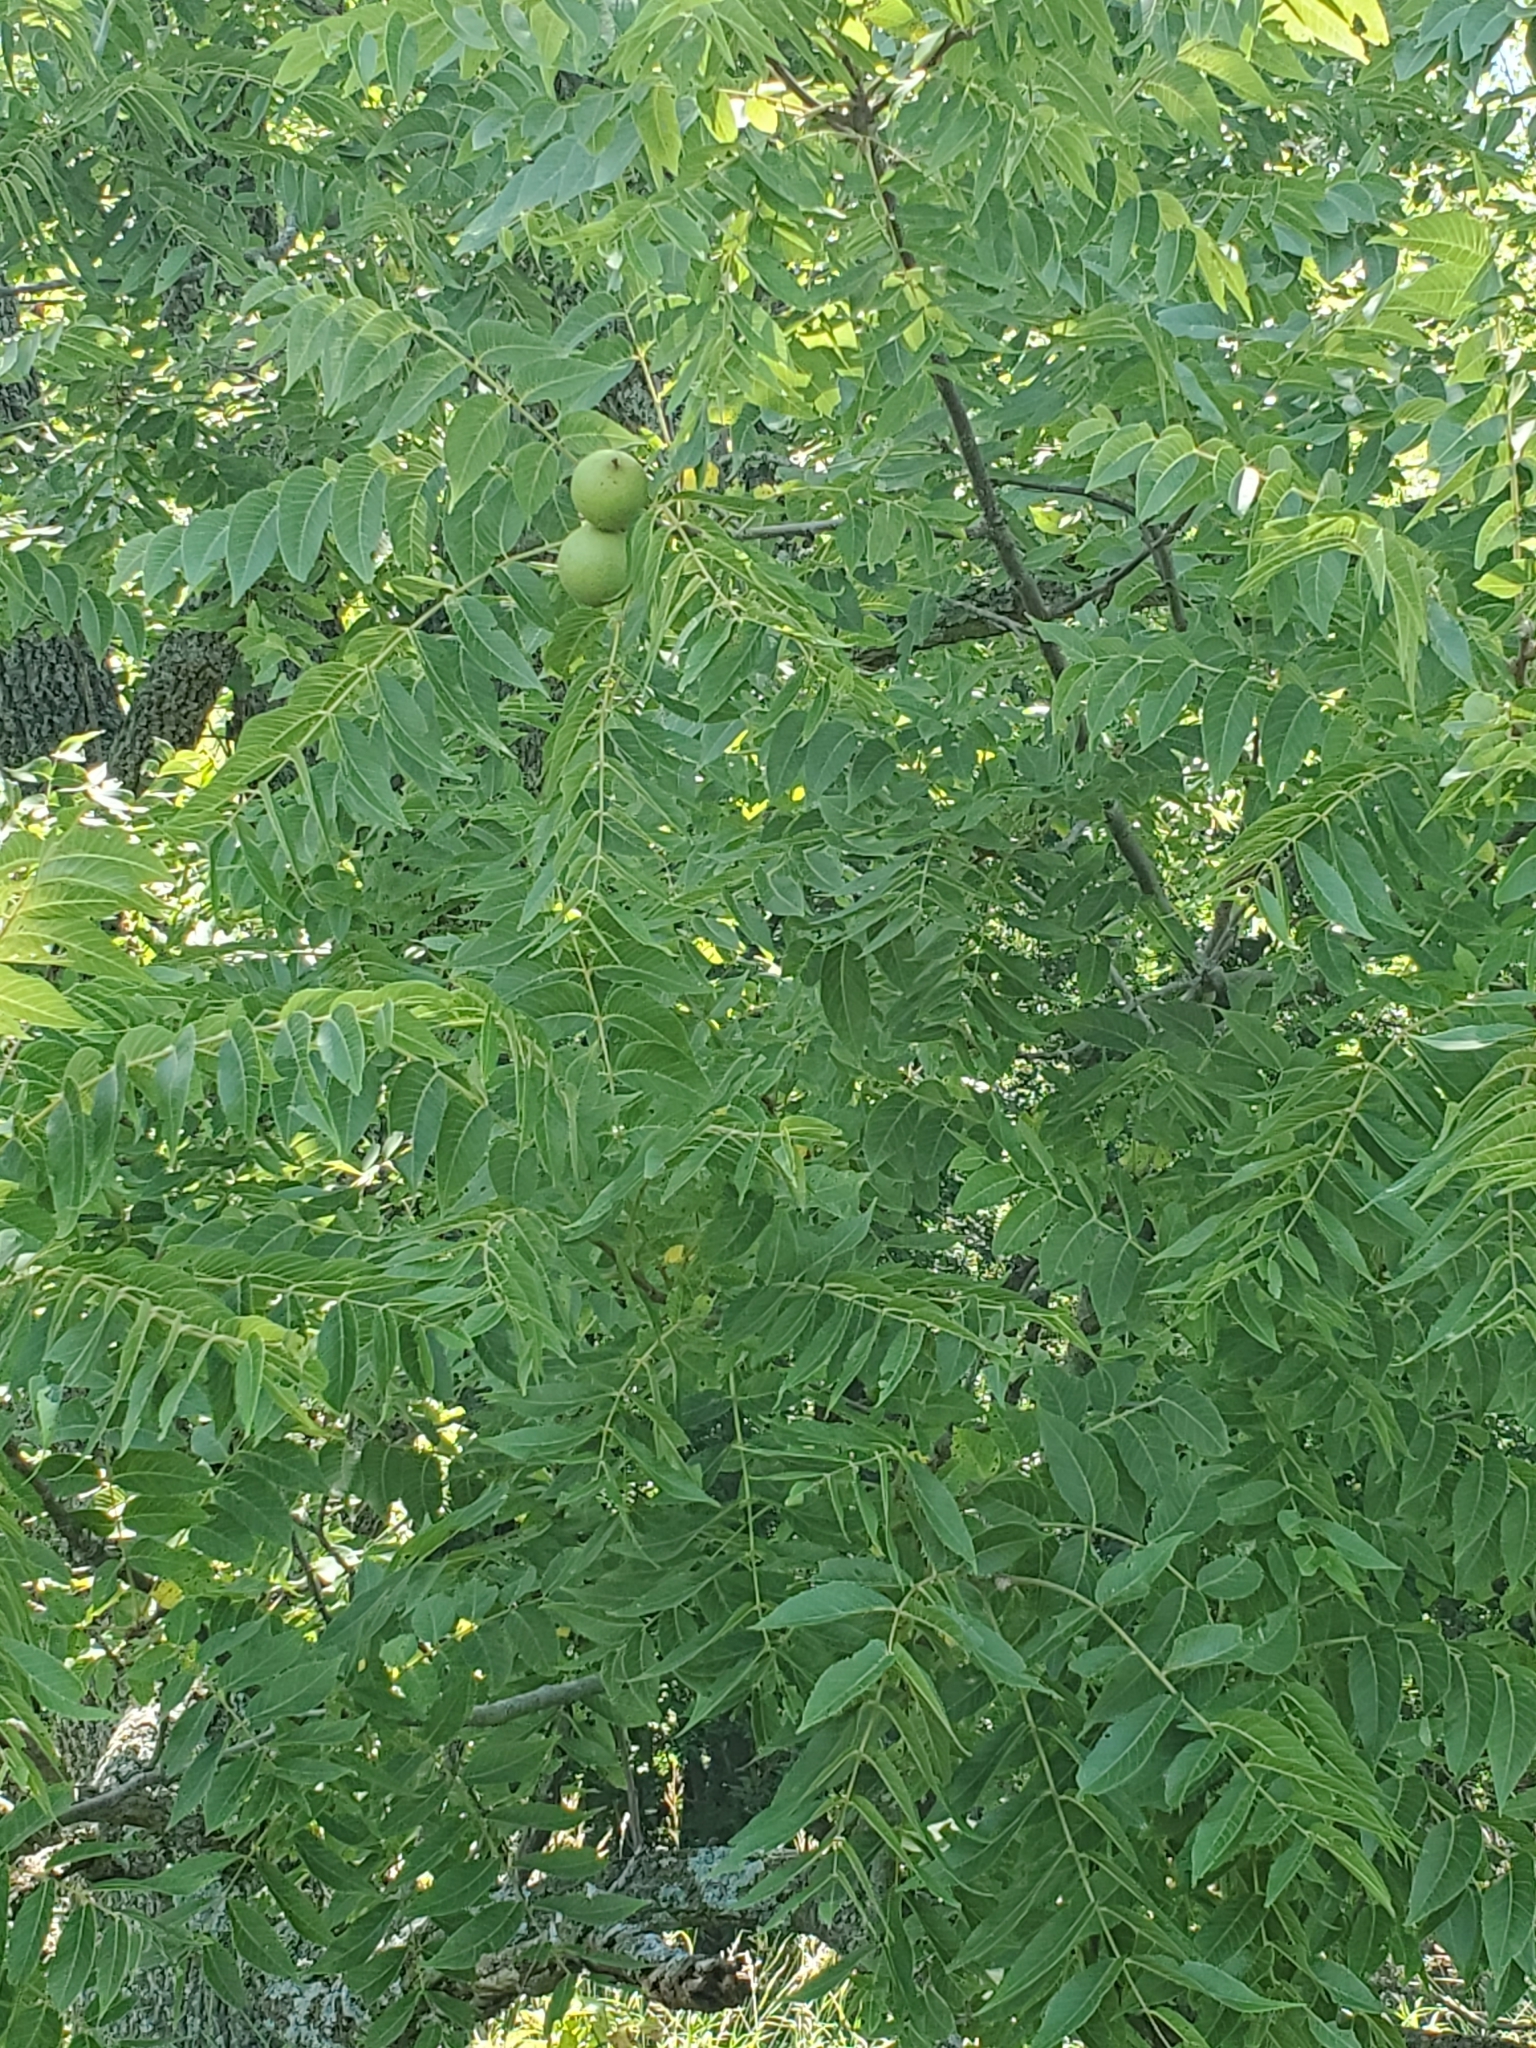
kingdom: Plantae
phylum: Tracheophyta
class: Magnoliopsida
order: Fagales
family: Juglandaceae
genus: Juglans
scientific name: Juglans nigra
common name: Black walnut
